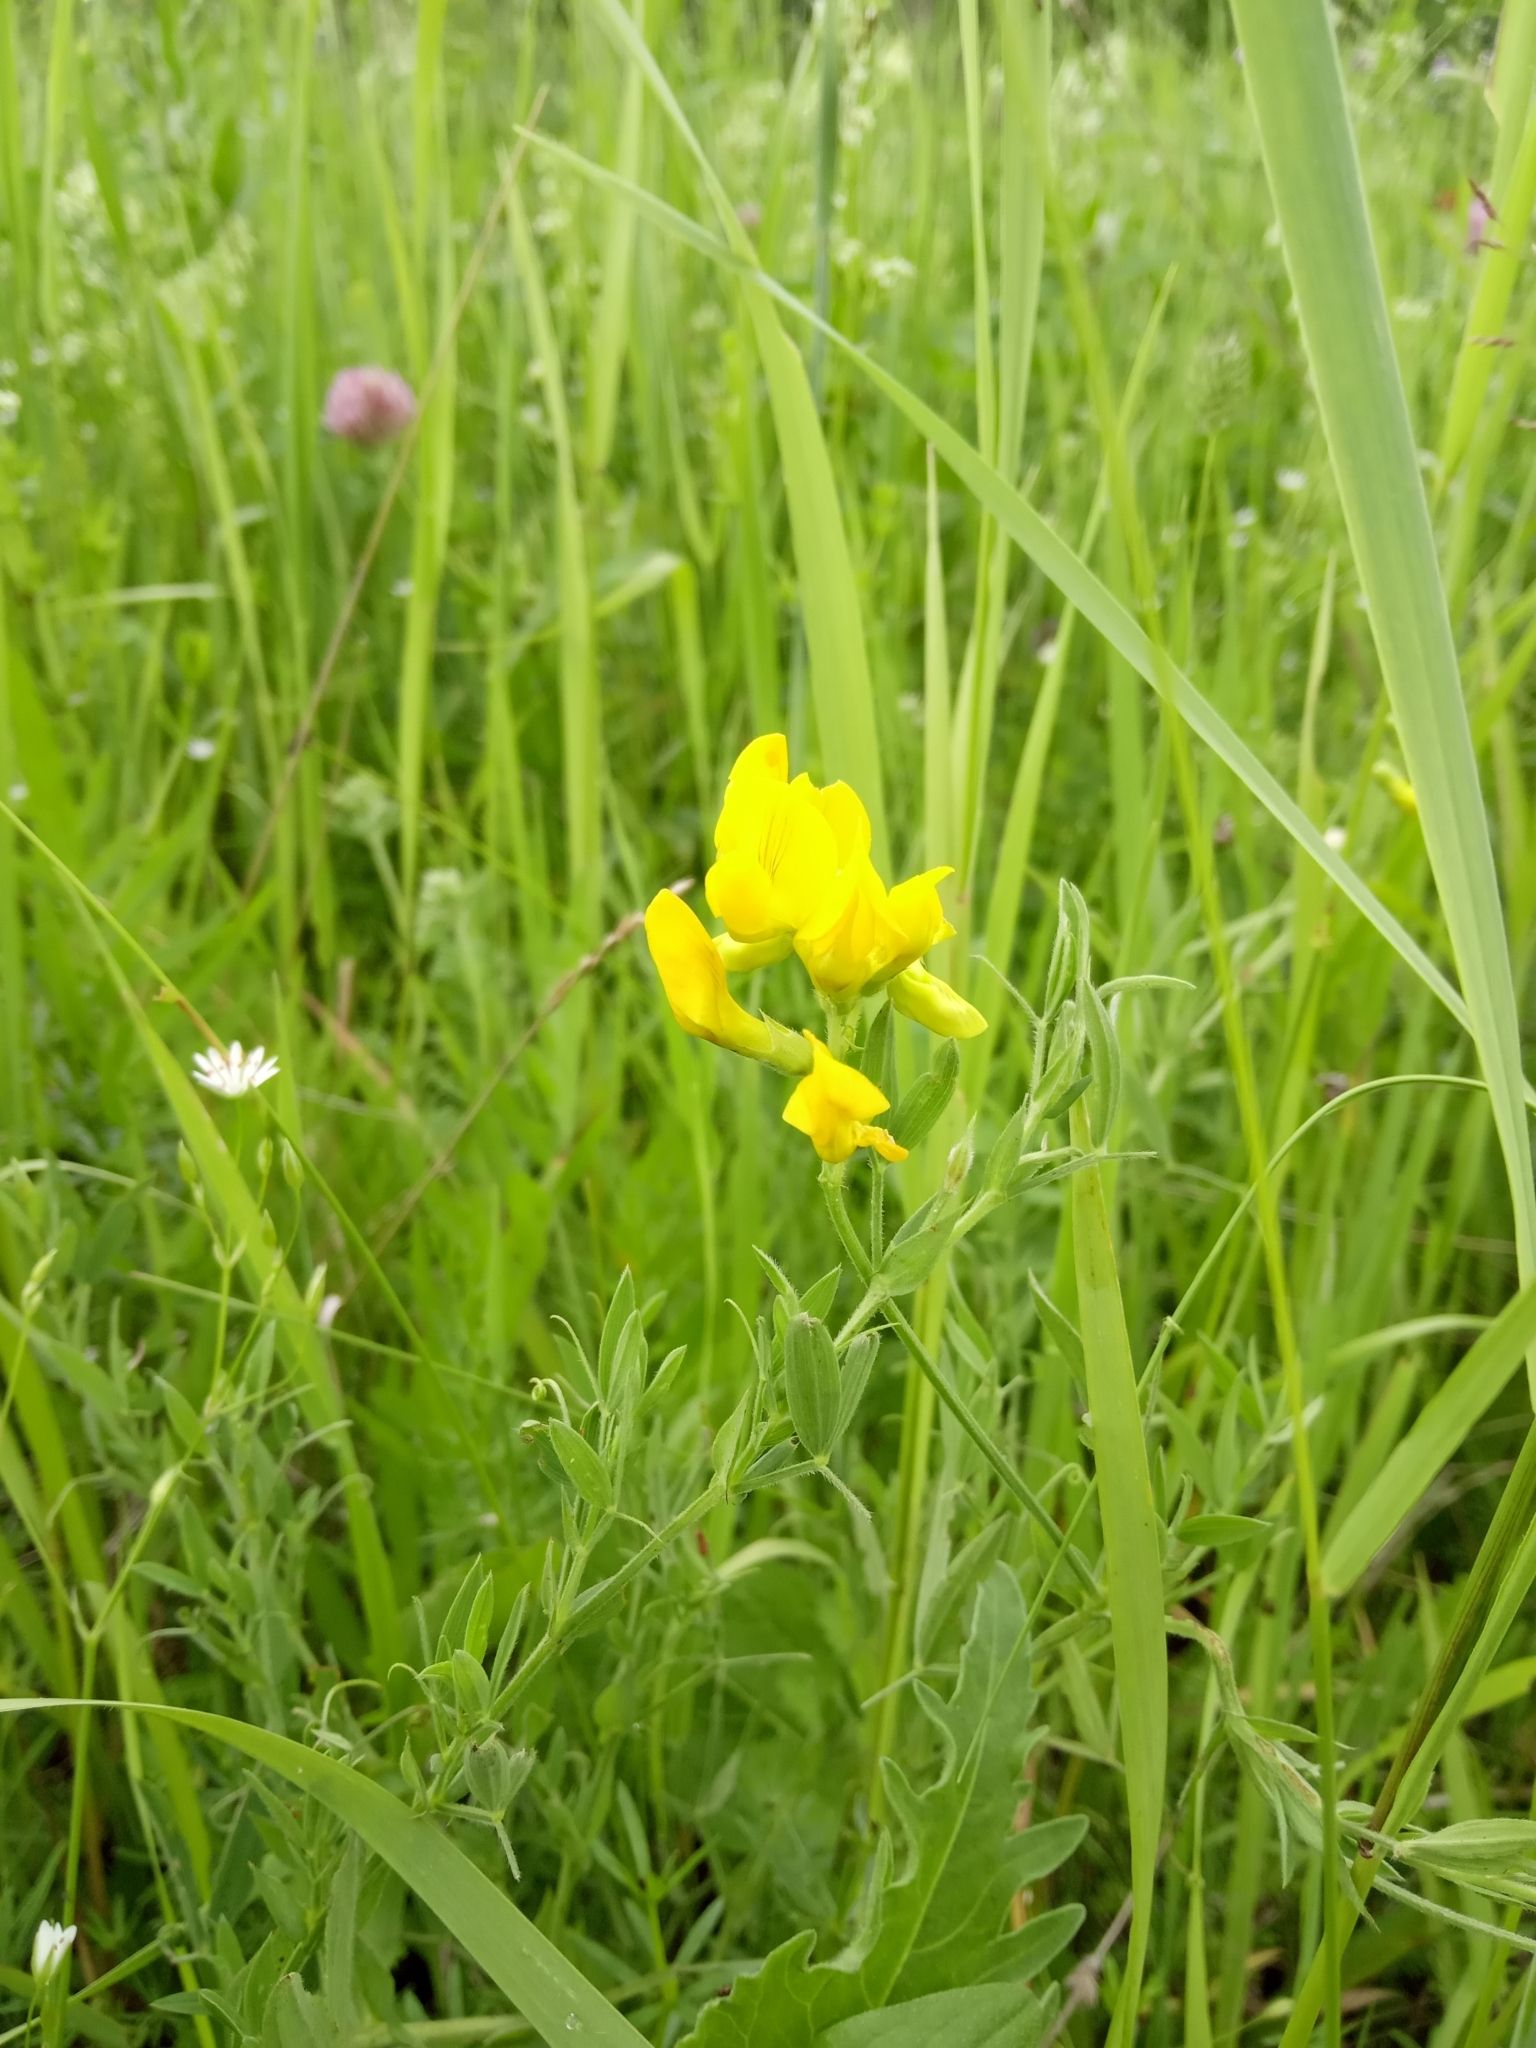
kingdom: Plantae
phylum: Tracheophyta
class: Magnoliopsida
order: Fabales
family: Fabaceae
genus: Lathyrus
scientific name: Lathyrus pratensis
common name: Meadow vetchling
